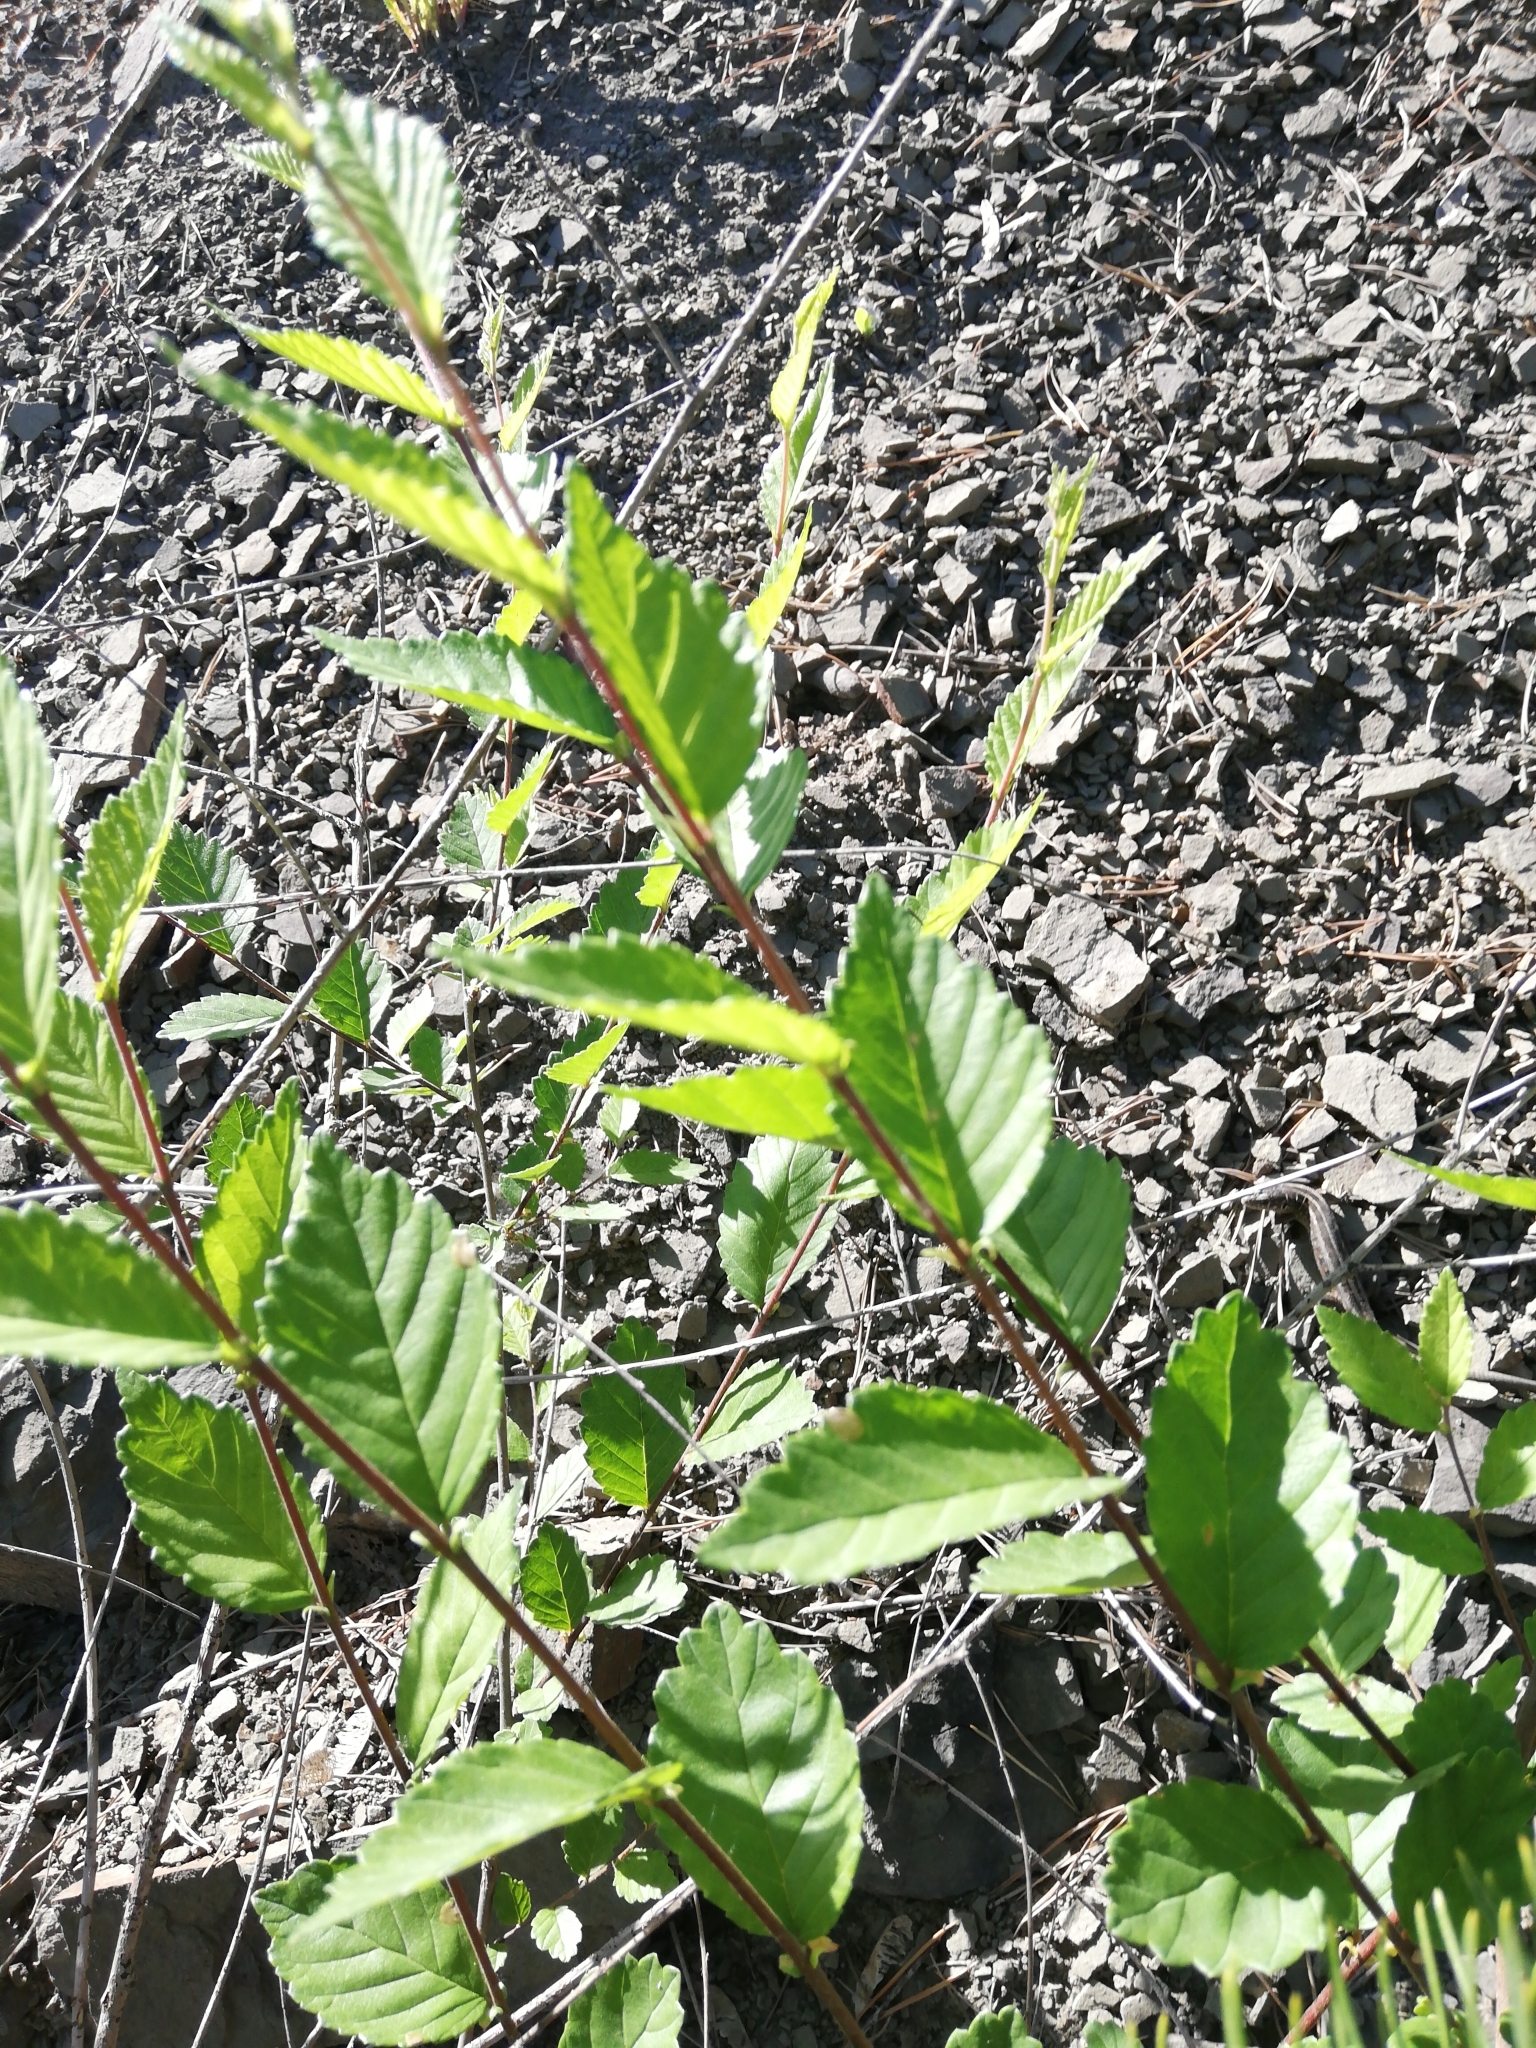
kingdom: Plantae
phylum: Tracheophyta
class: Magnoliopsida
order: Rosales
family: Ulmaceae
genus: Ulmus
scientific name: Ulmus pumila
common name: Siberian elm
